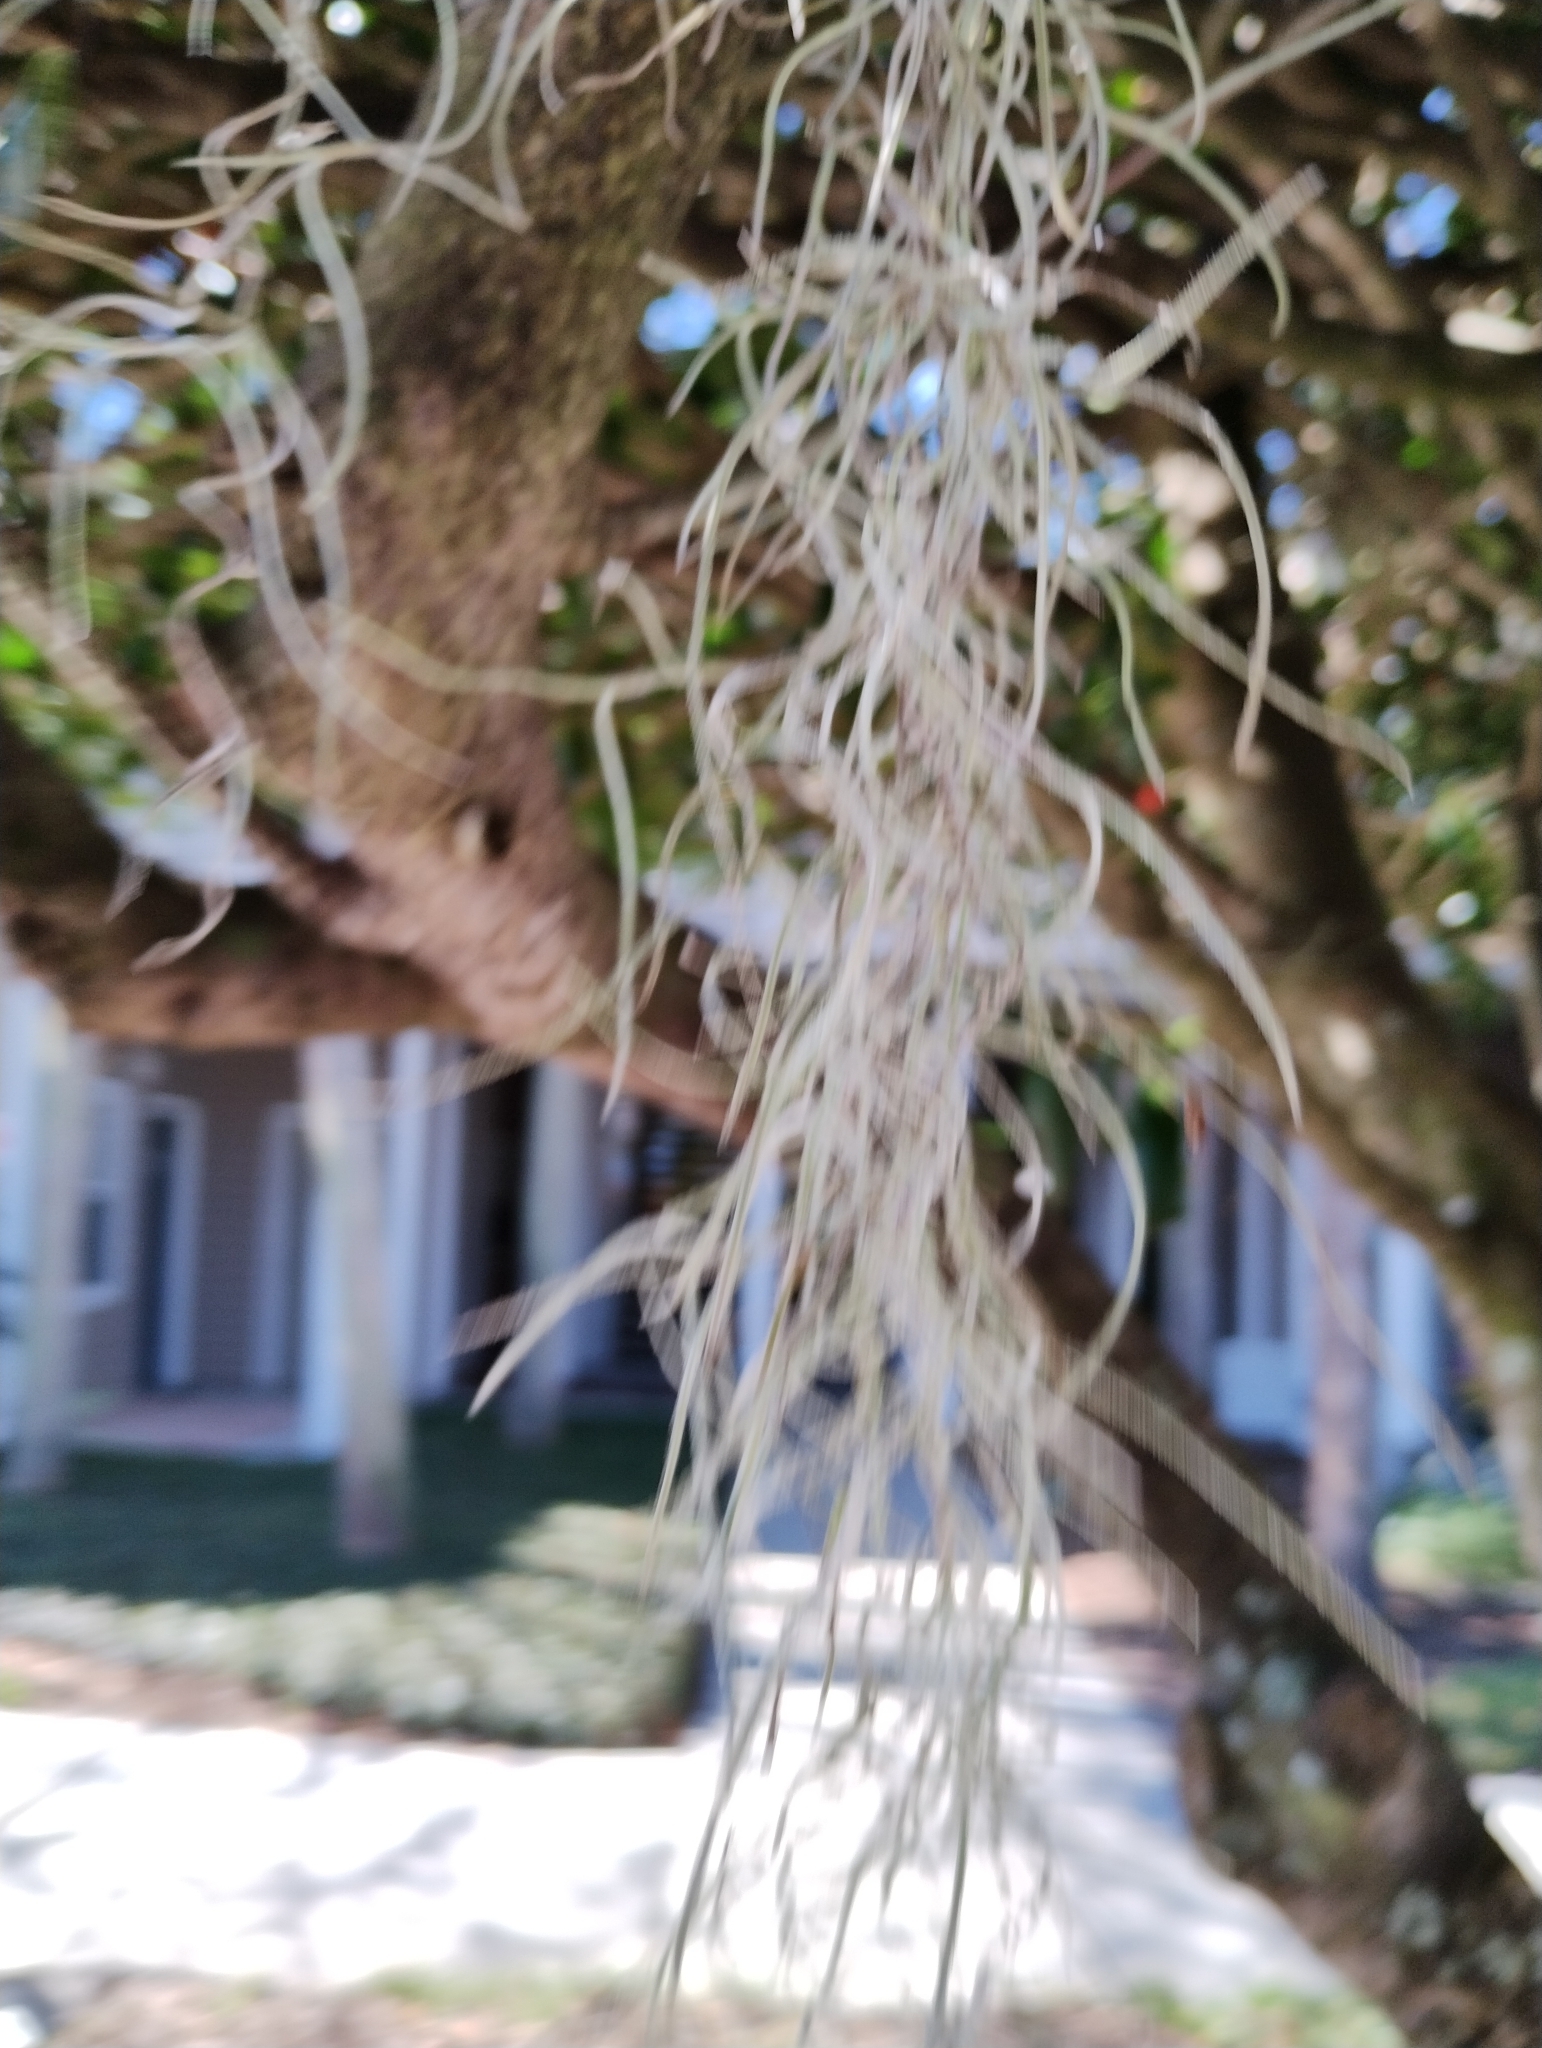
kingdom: Plantae
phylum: Tracheophyta
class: Liliopsida
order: Poales
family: Bromeliaceae
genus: Tillandsia
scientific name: Tillandsia usneoides
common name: Spanish moss
